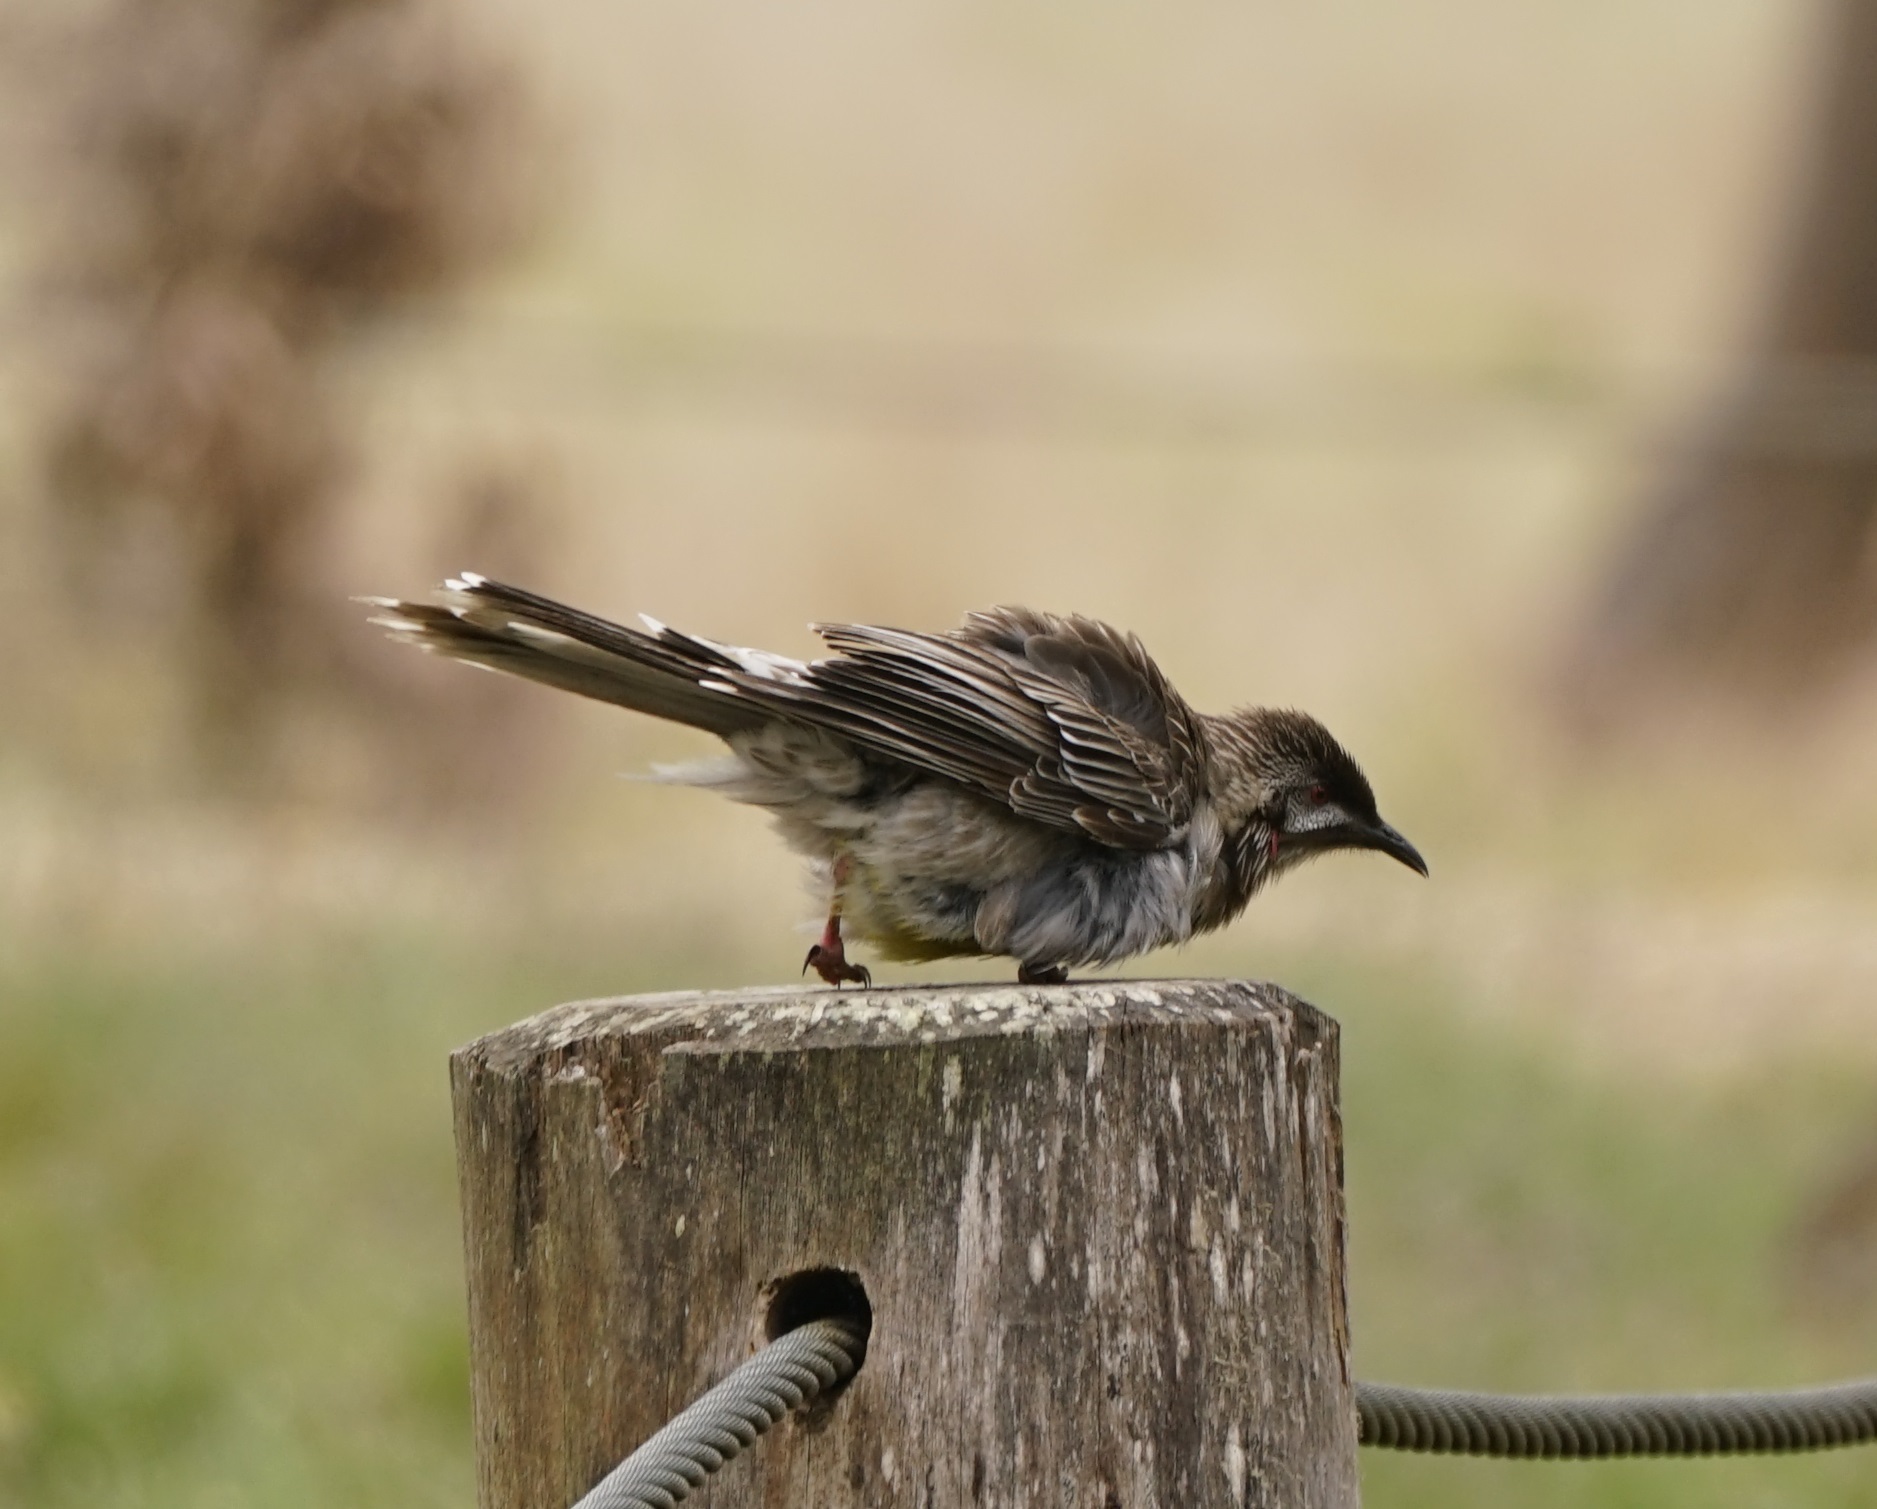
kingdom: Animalia
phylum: Chordata
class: Aves
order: Passeriformes
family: Meliphagidae
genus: Anthochaera
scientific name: Anthochaera carunculata
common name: Red wattlebird
